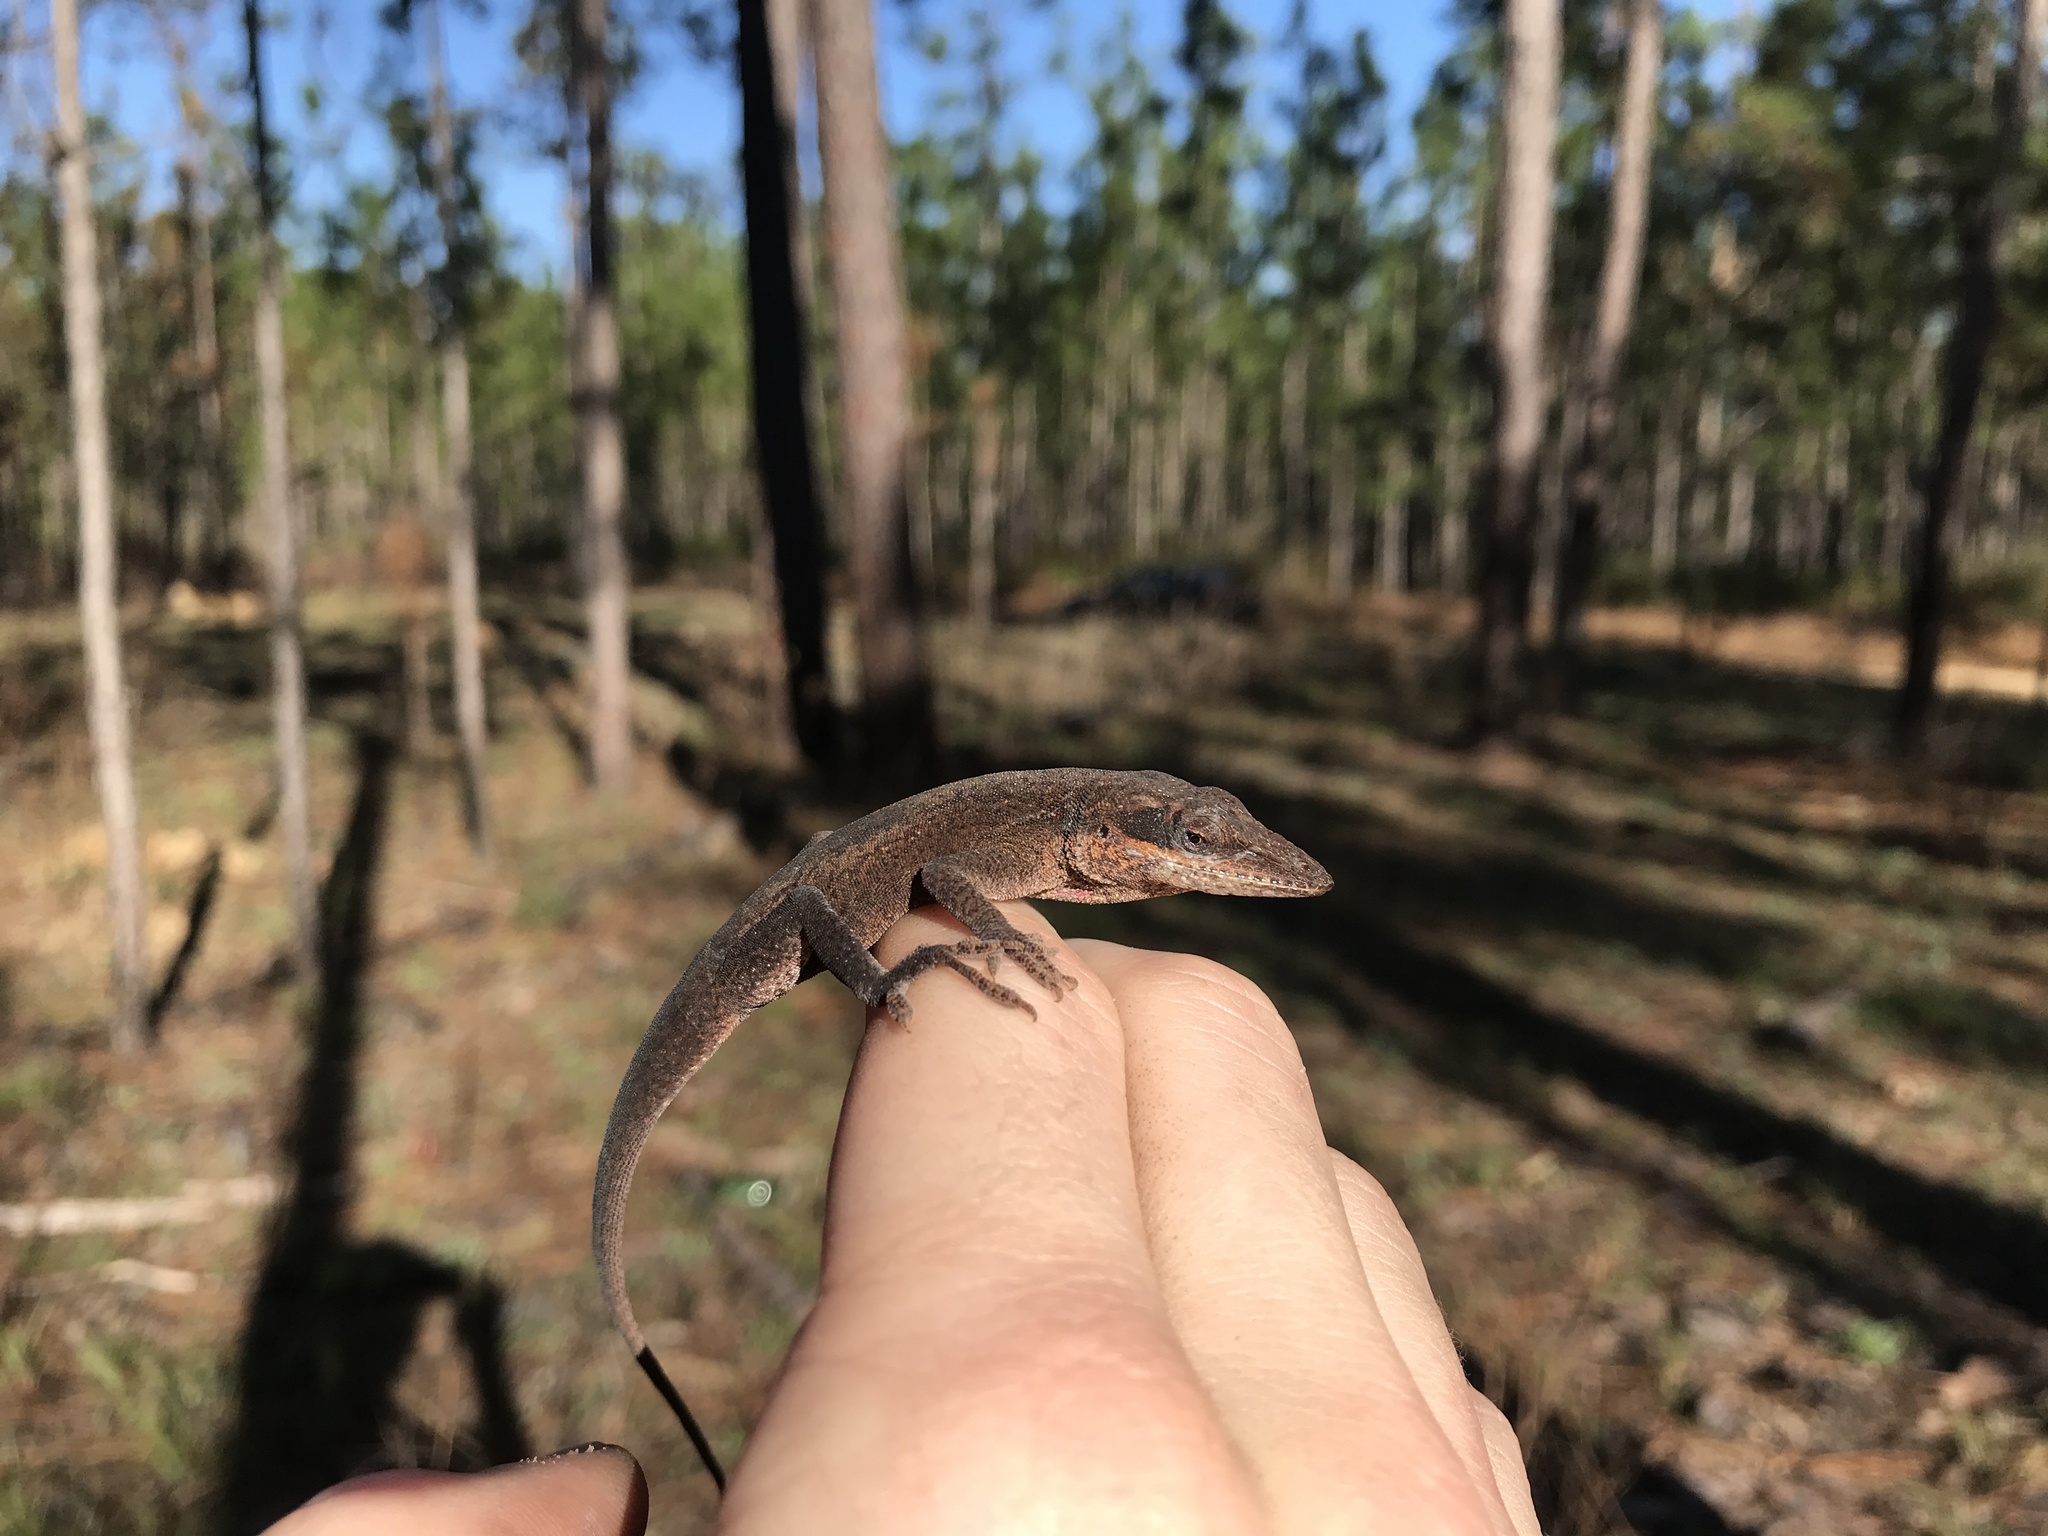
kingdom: Animalia
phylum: Chordata
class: Squamata
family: Dactyloidae
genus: Anolis
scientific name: Anolis carolinensis
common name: Green anole
